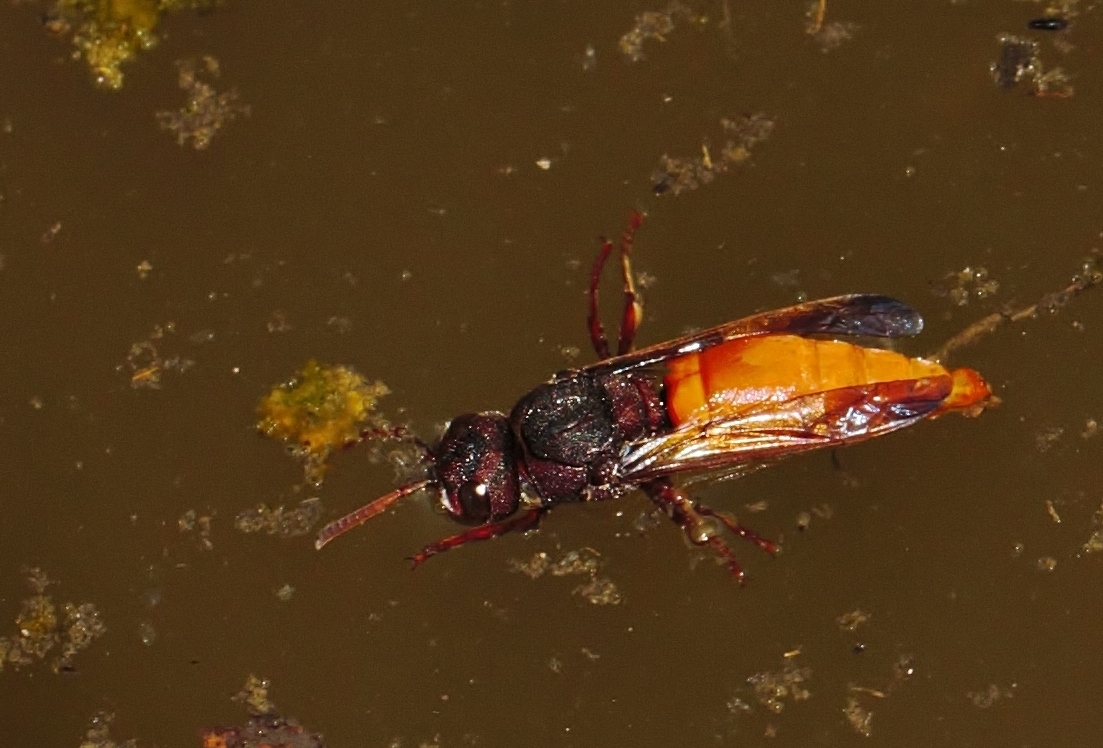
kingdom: Animalia
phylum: Arthropoda
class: Insecta
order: Hymenoptera
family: Eumenidae
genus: Tricarinodynerus
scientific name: Tricarinodynerus guerinii
